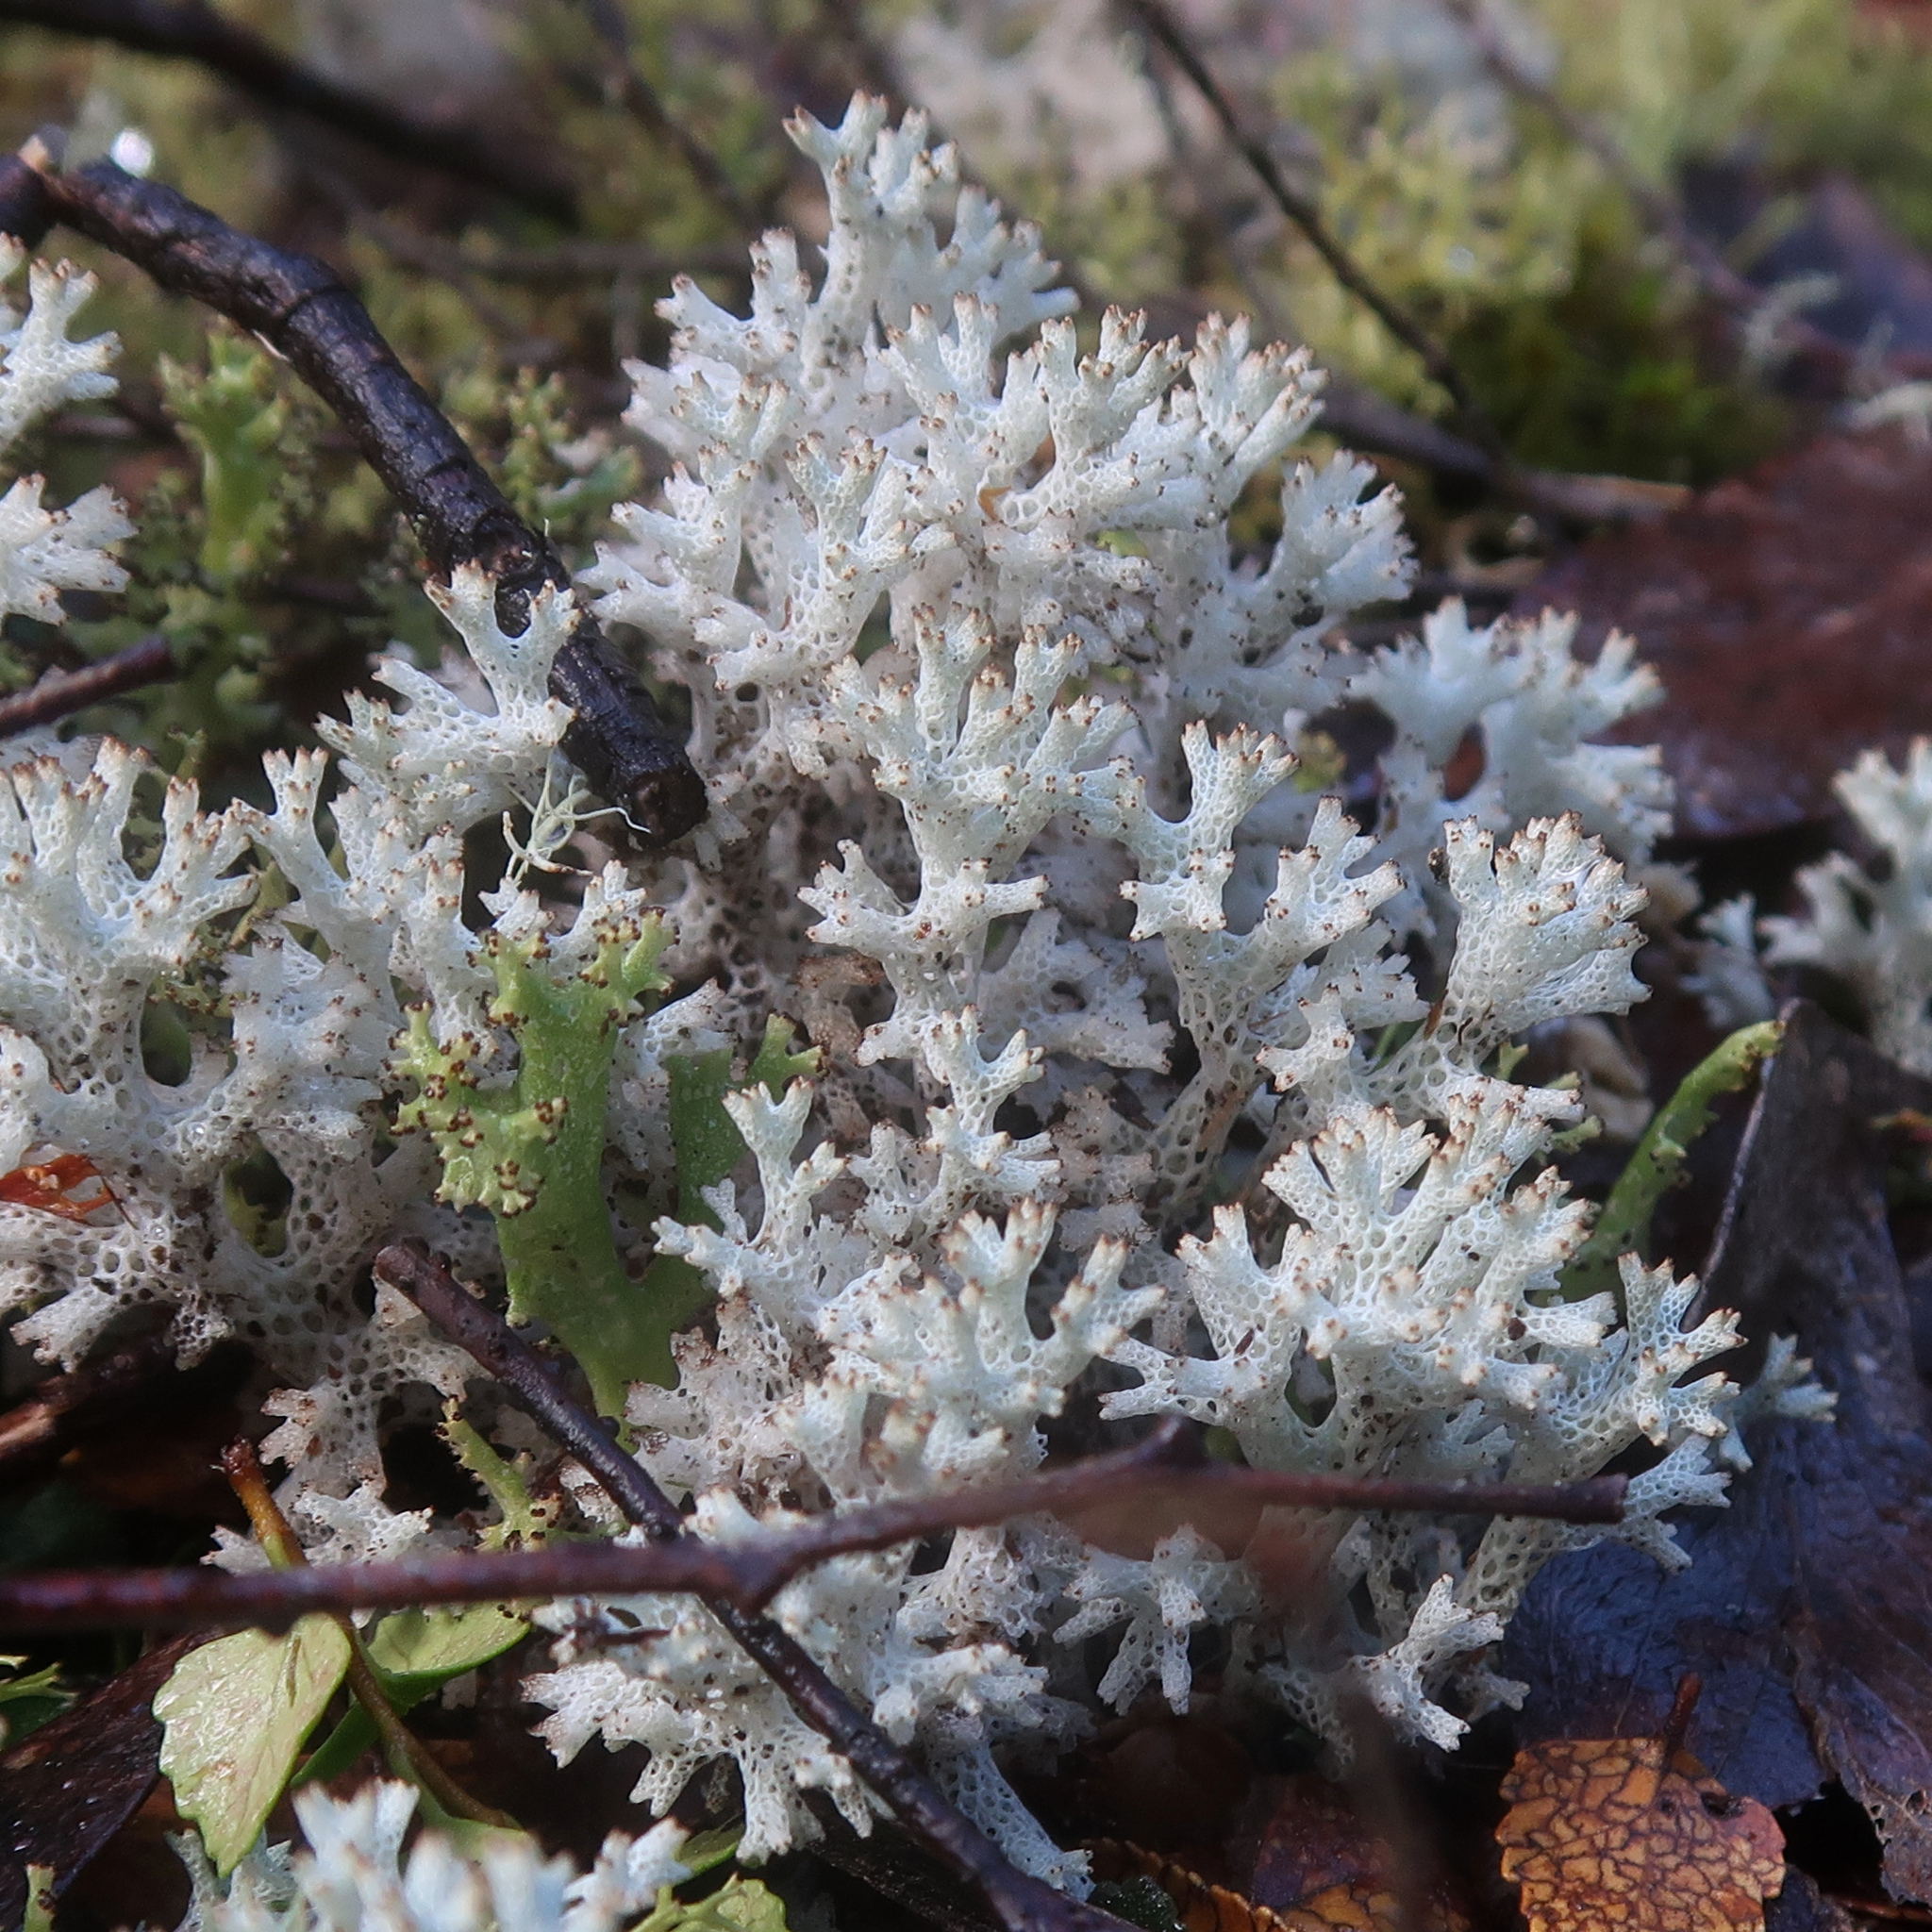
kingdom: Fungi
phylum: Ascomycota
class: Lecanoromycetes
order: Lecanorales
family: Cladoniaceae
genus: Pulchrocladia
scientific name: Pulchrocladia retipora
